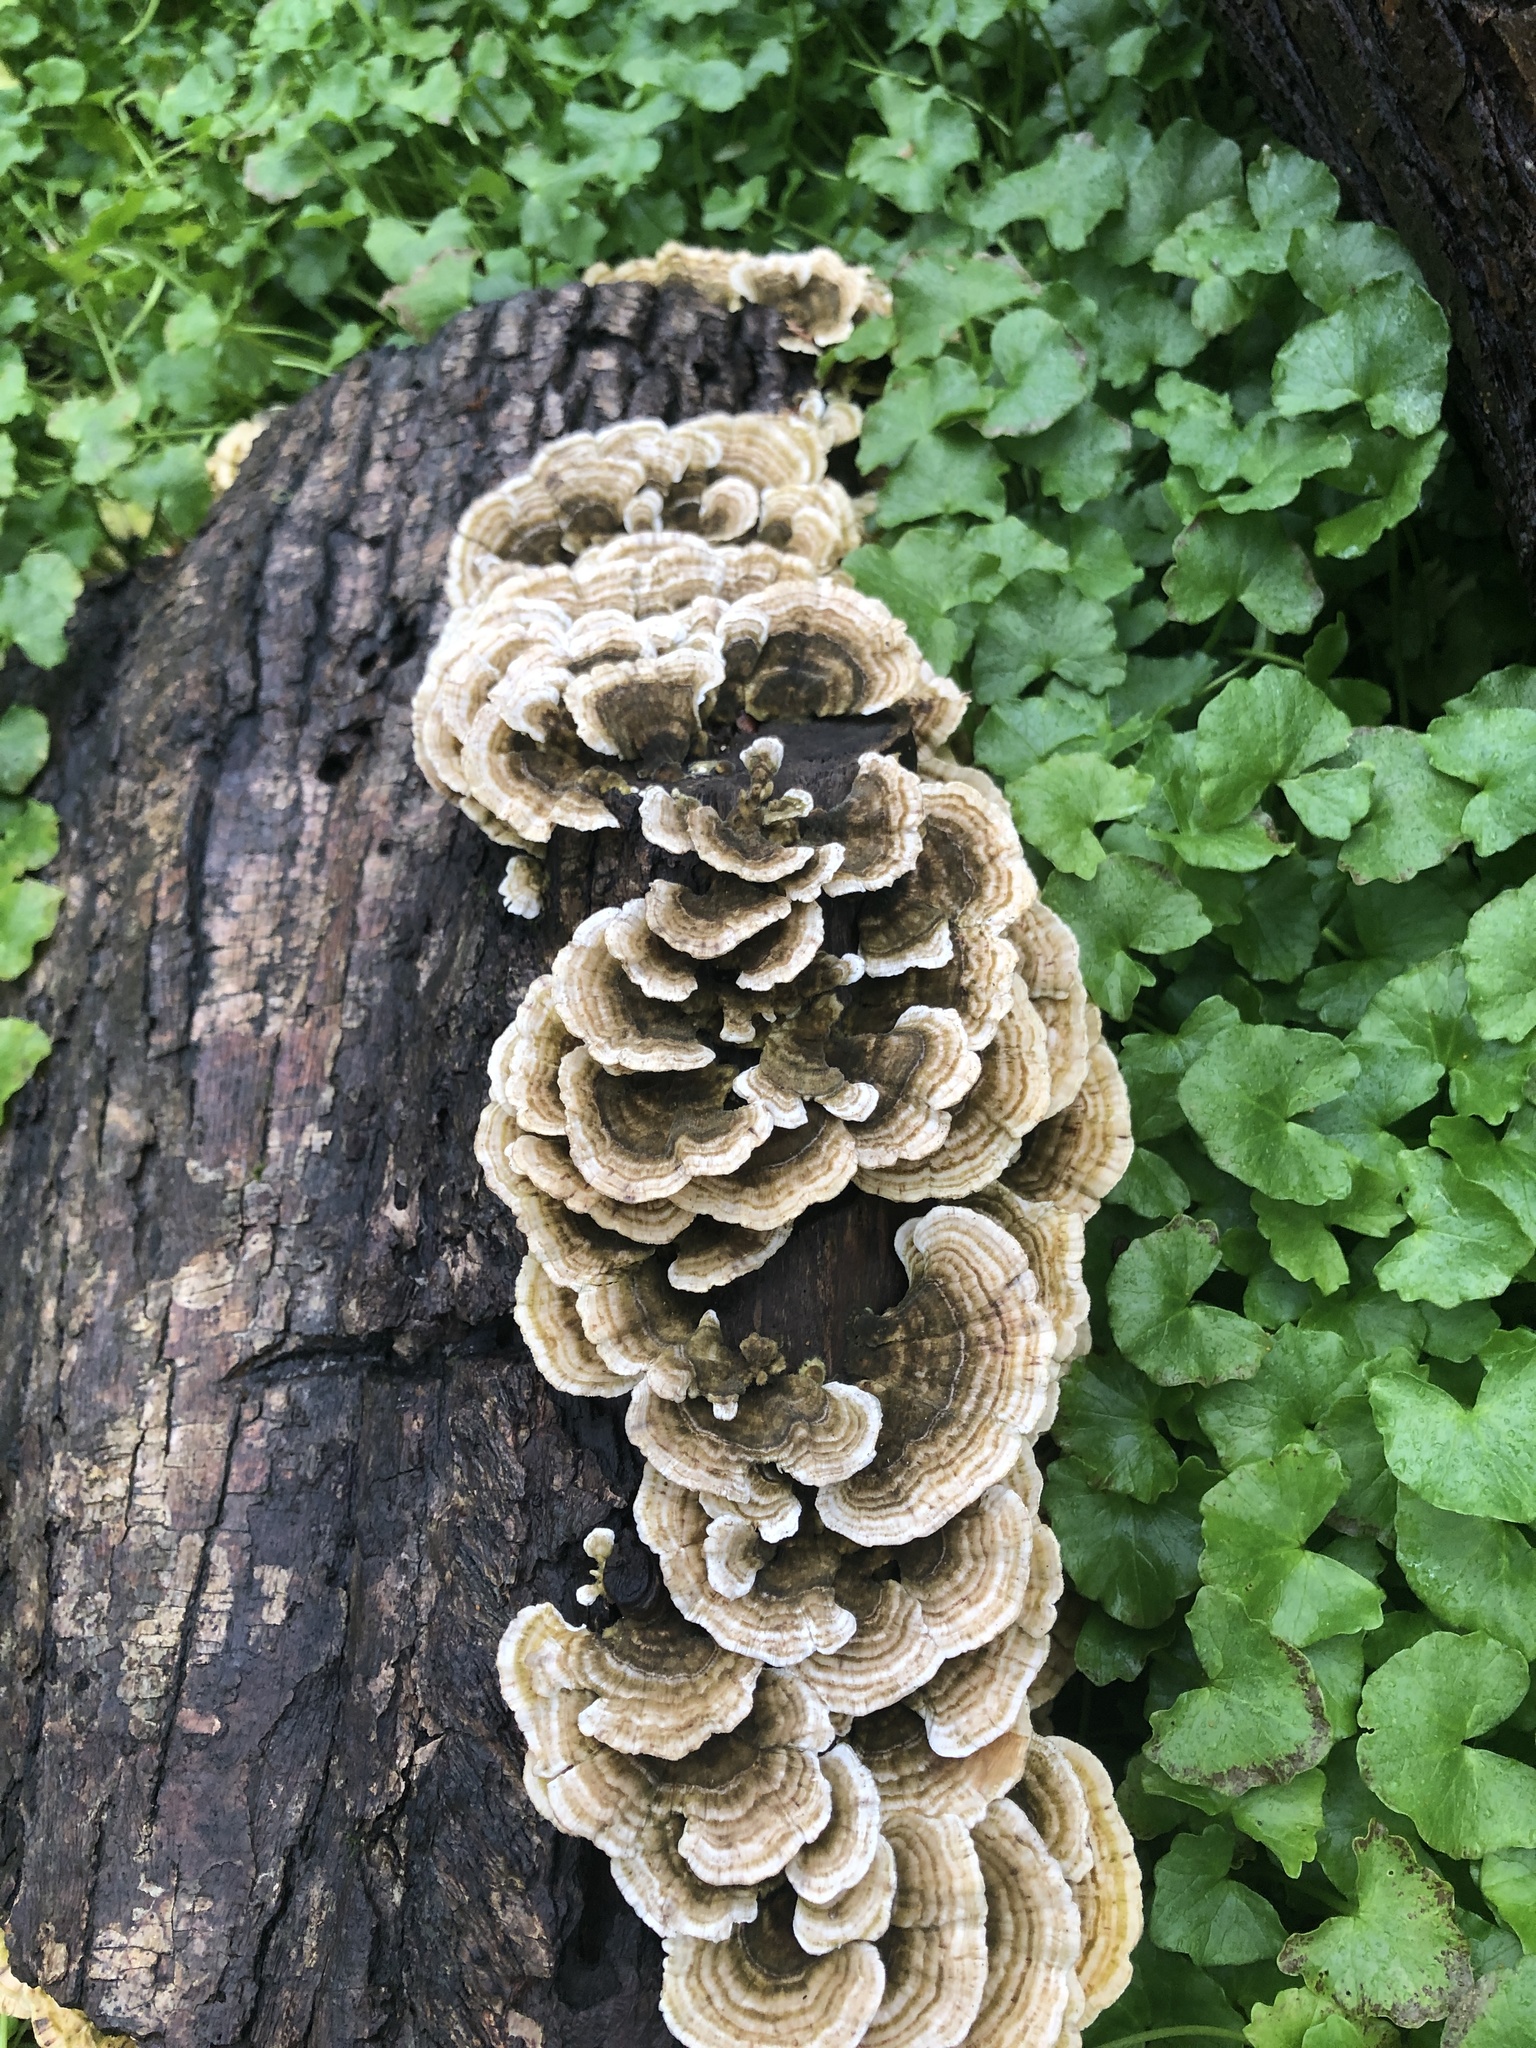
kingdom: Fungi
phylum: Basidiomycota
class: Agaricomycetes
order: Polyporales
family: Polyporaceae
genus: Trametes
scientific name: Trametes versicolor
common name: Turkeytail
